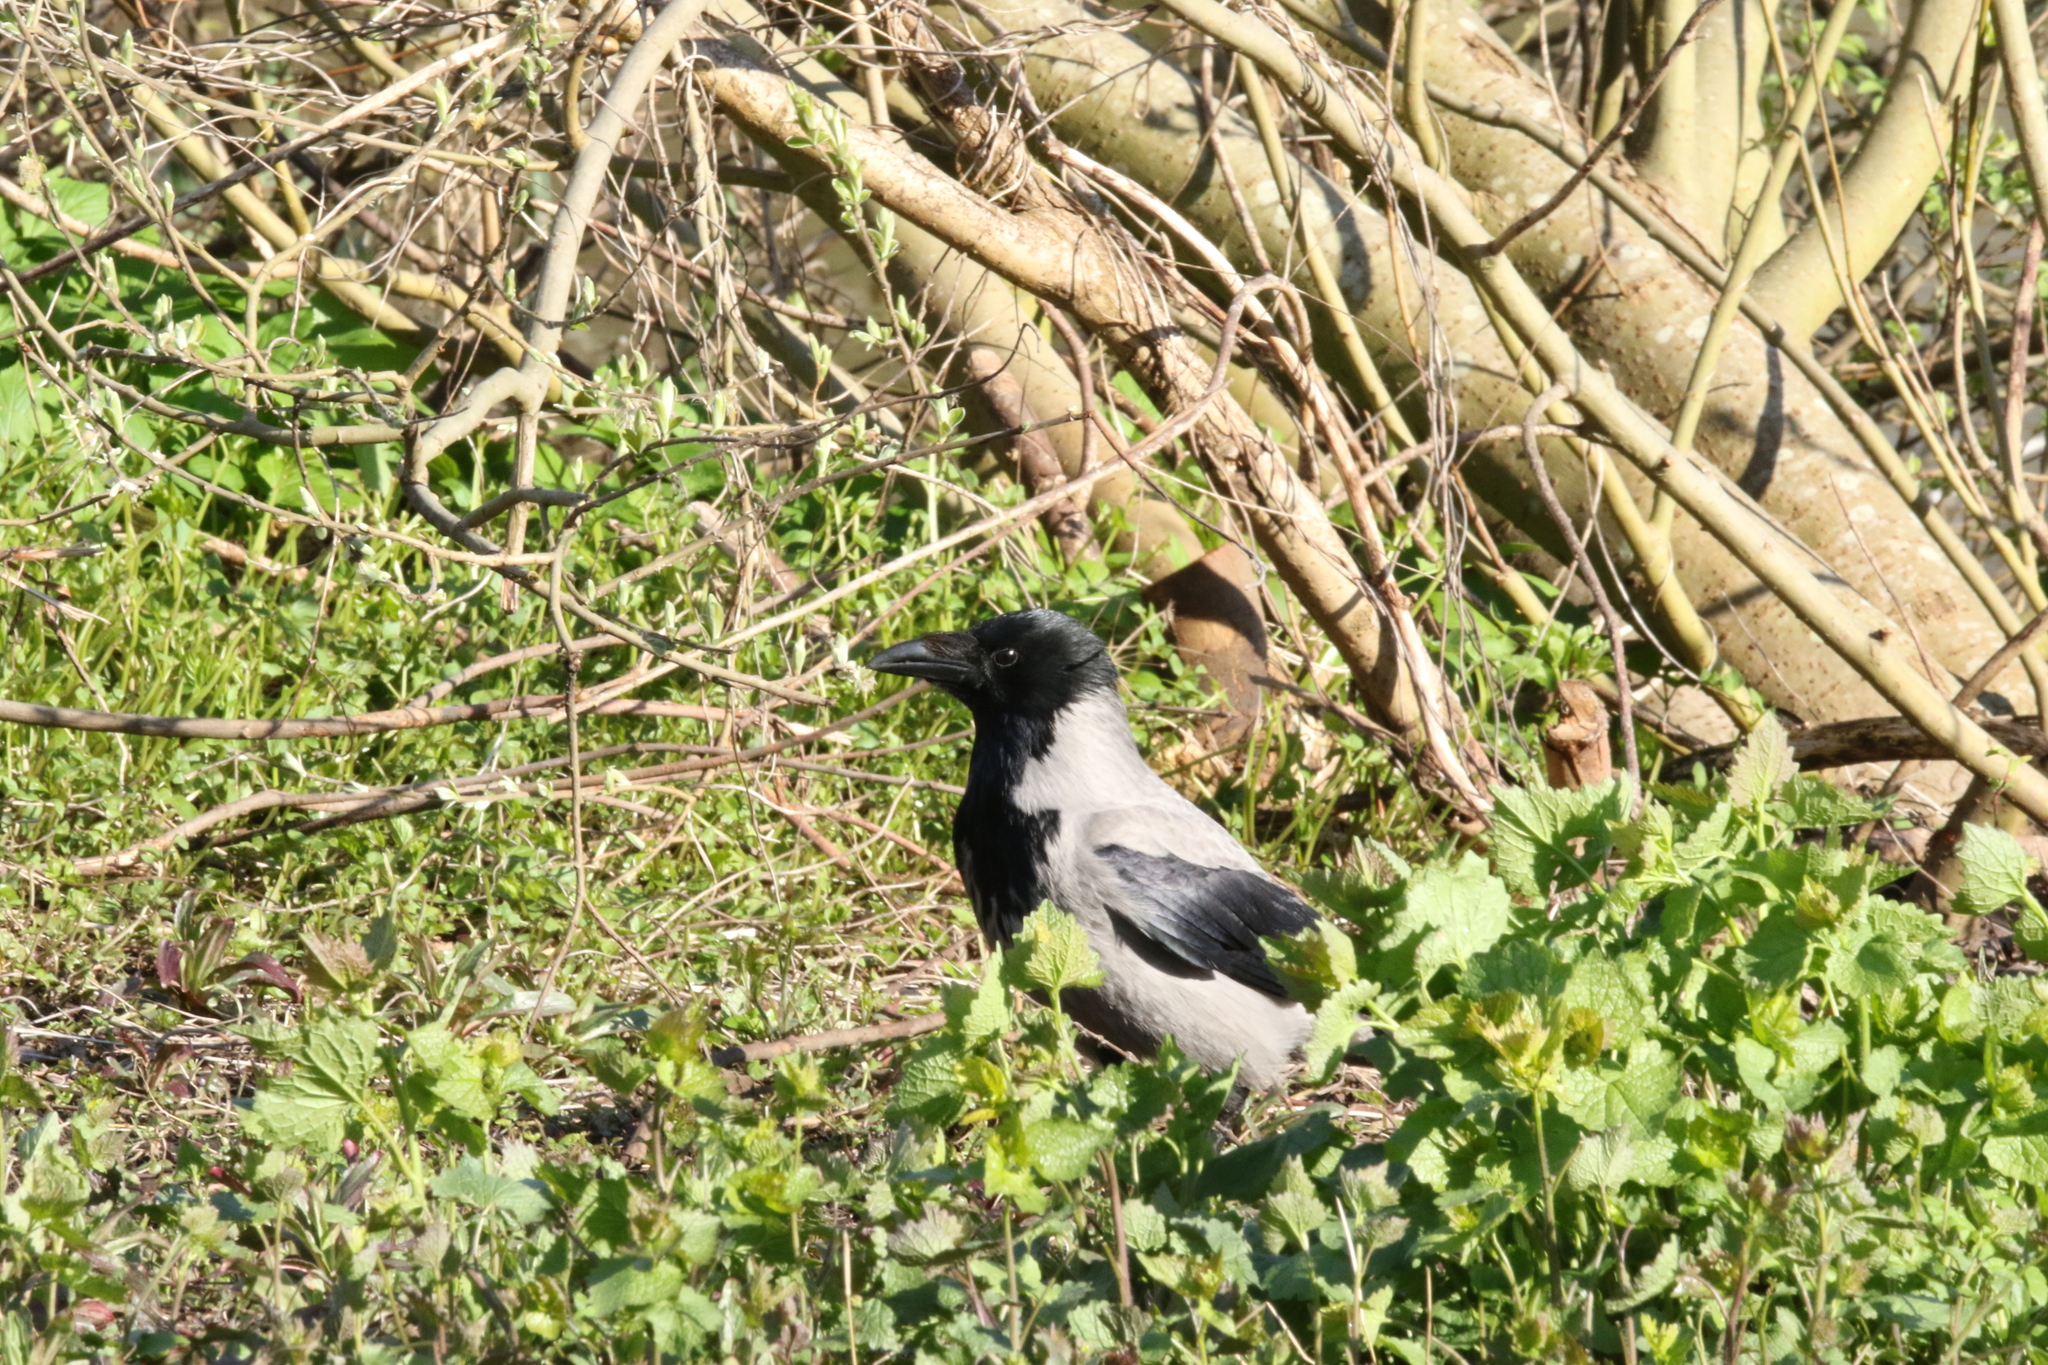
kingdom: Animalia
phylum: Chordata
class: Aves
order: Passeriformes
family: Corvidae
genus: Corvus
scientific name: Corvus cornix
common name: Hooded crow
